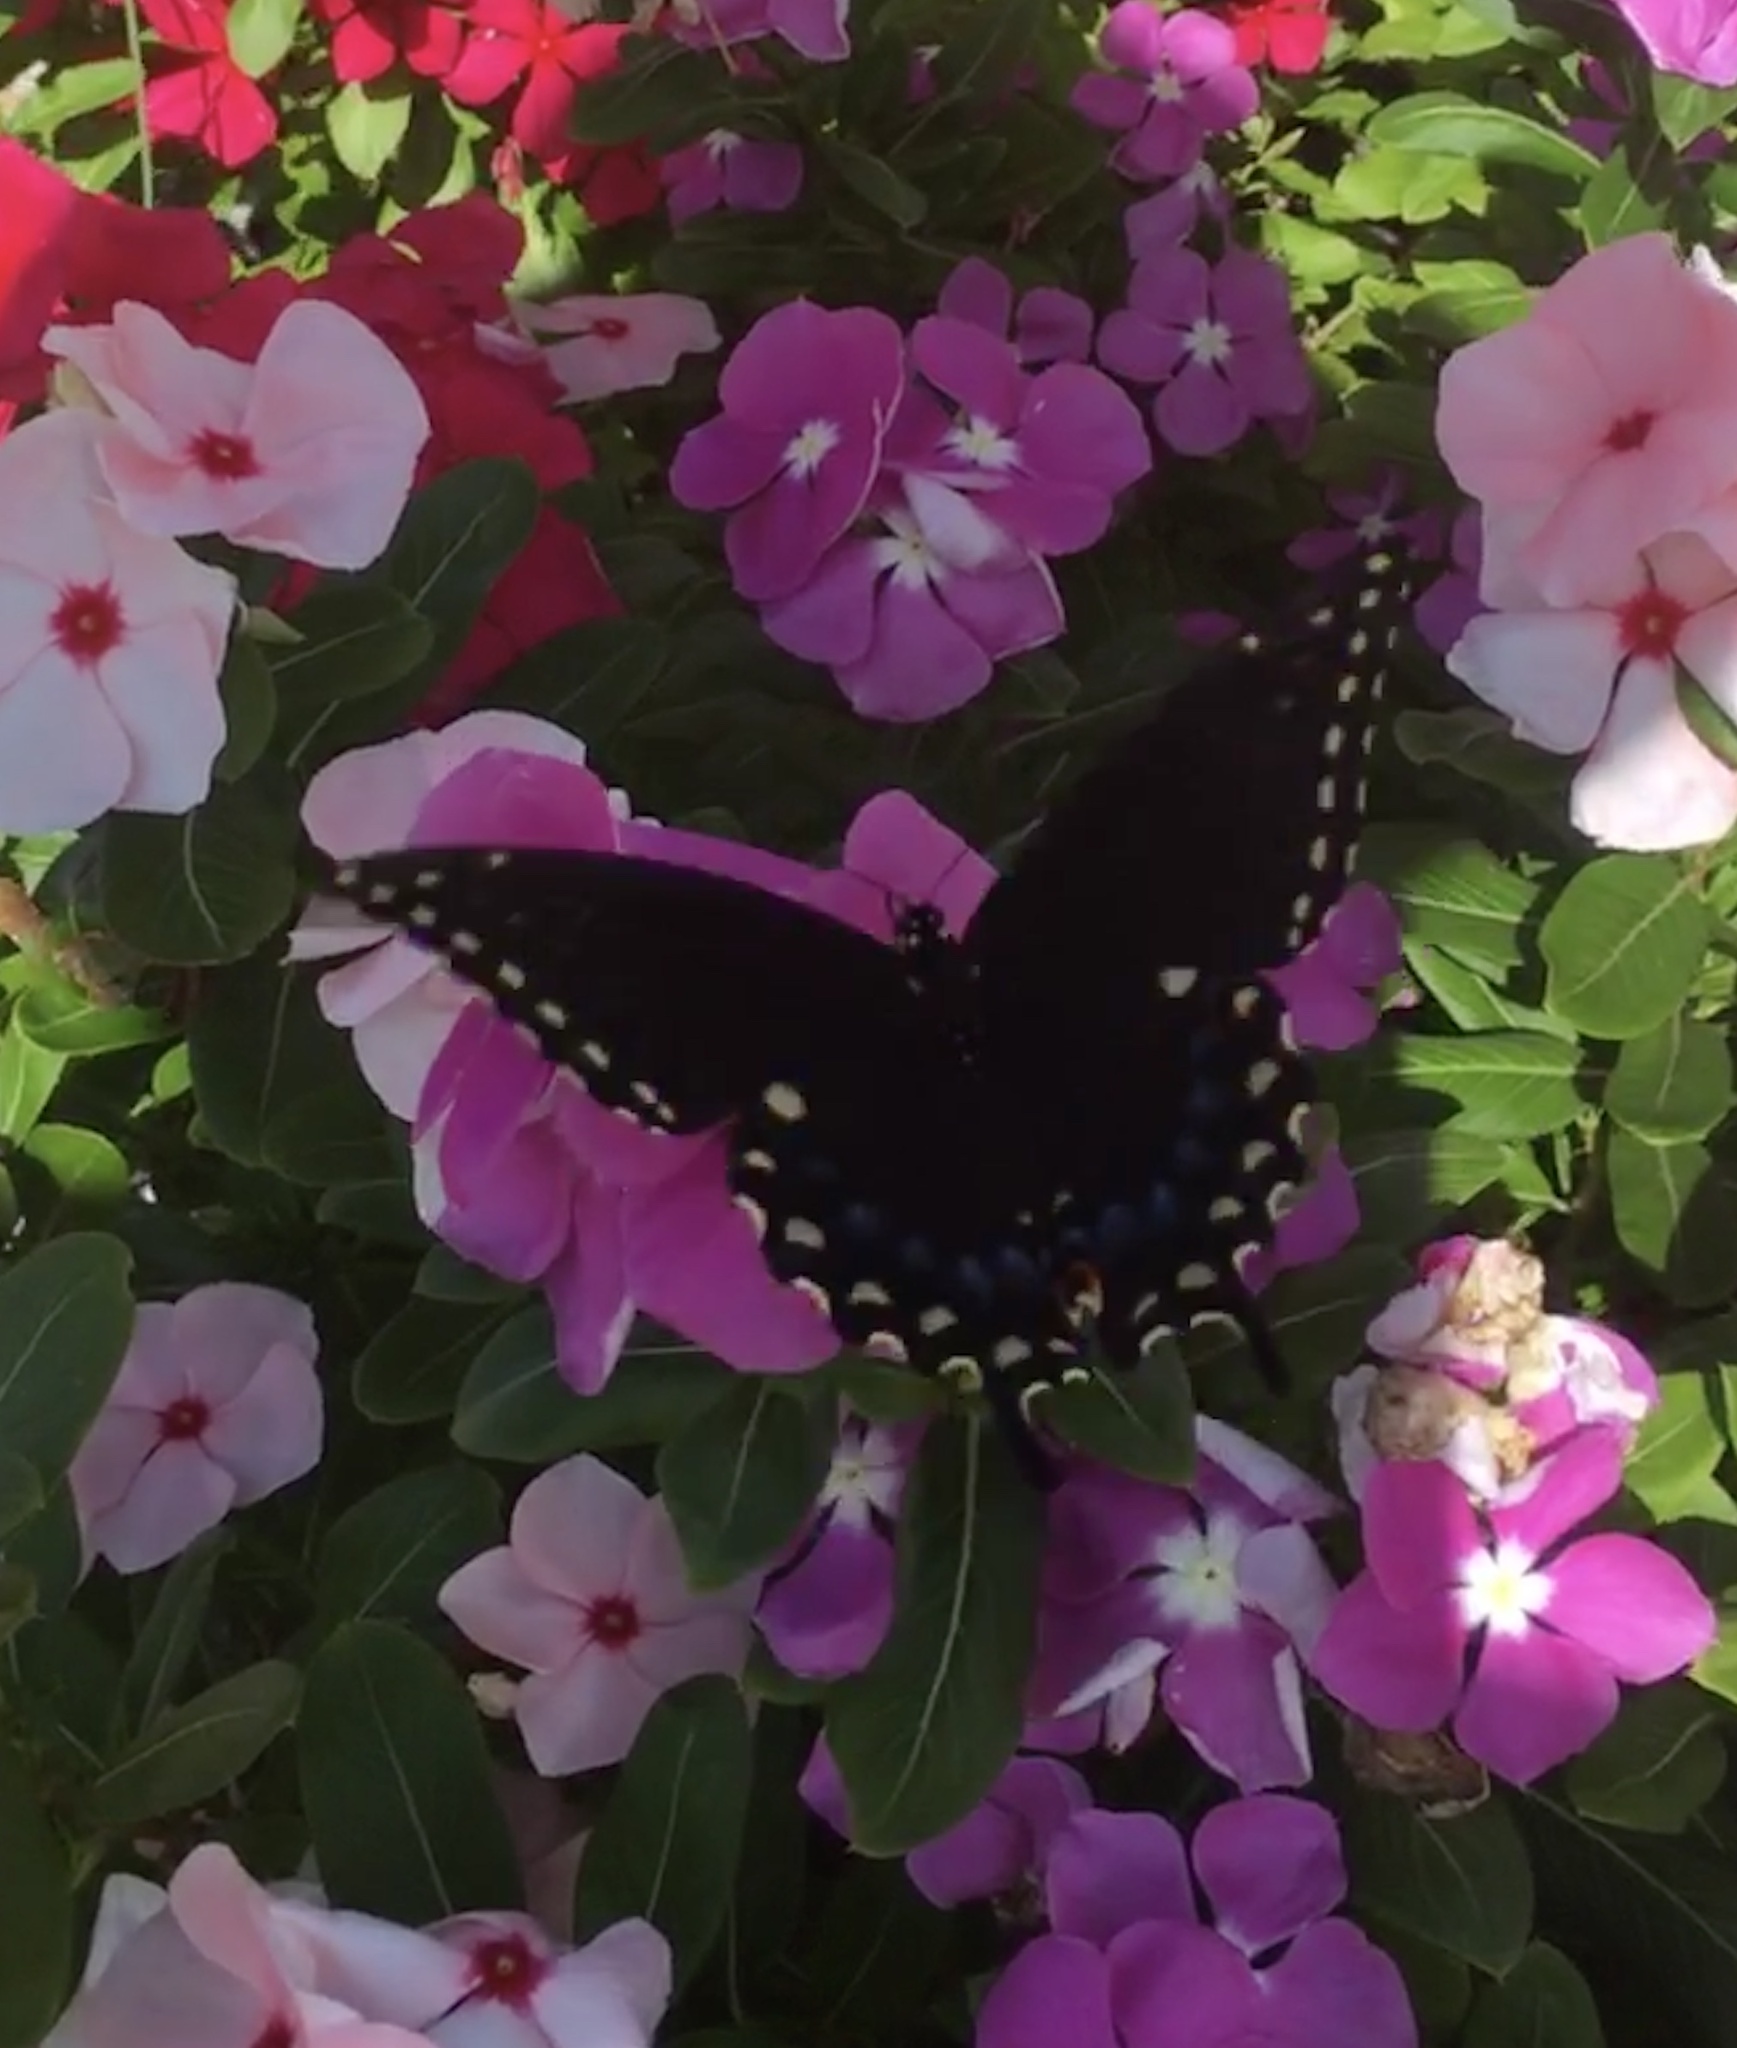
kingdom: Animalia
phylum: Arthropoda
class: Insecta
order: Lepidoptera
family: Papilionidae
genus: Papilio
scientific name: Papilio polyxenes
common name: Black swallowtail
